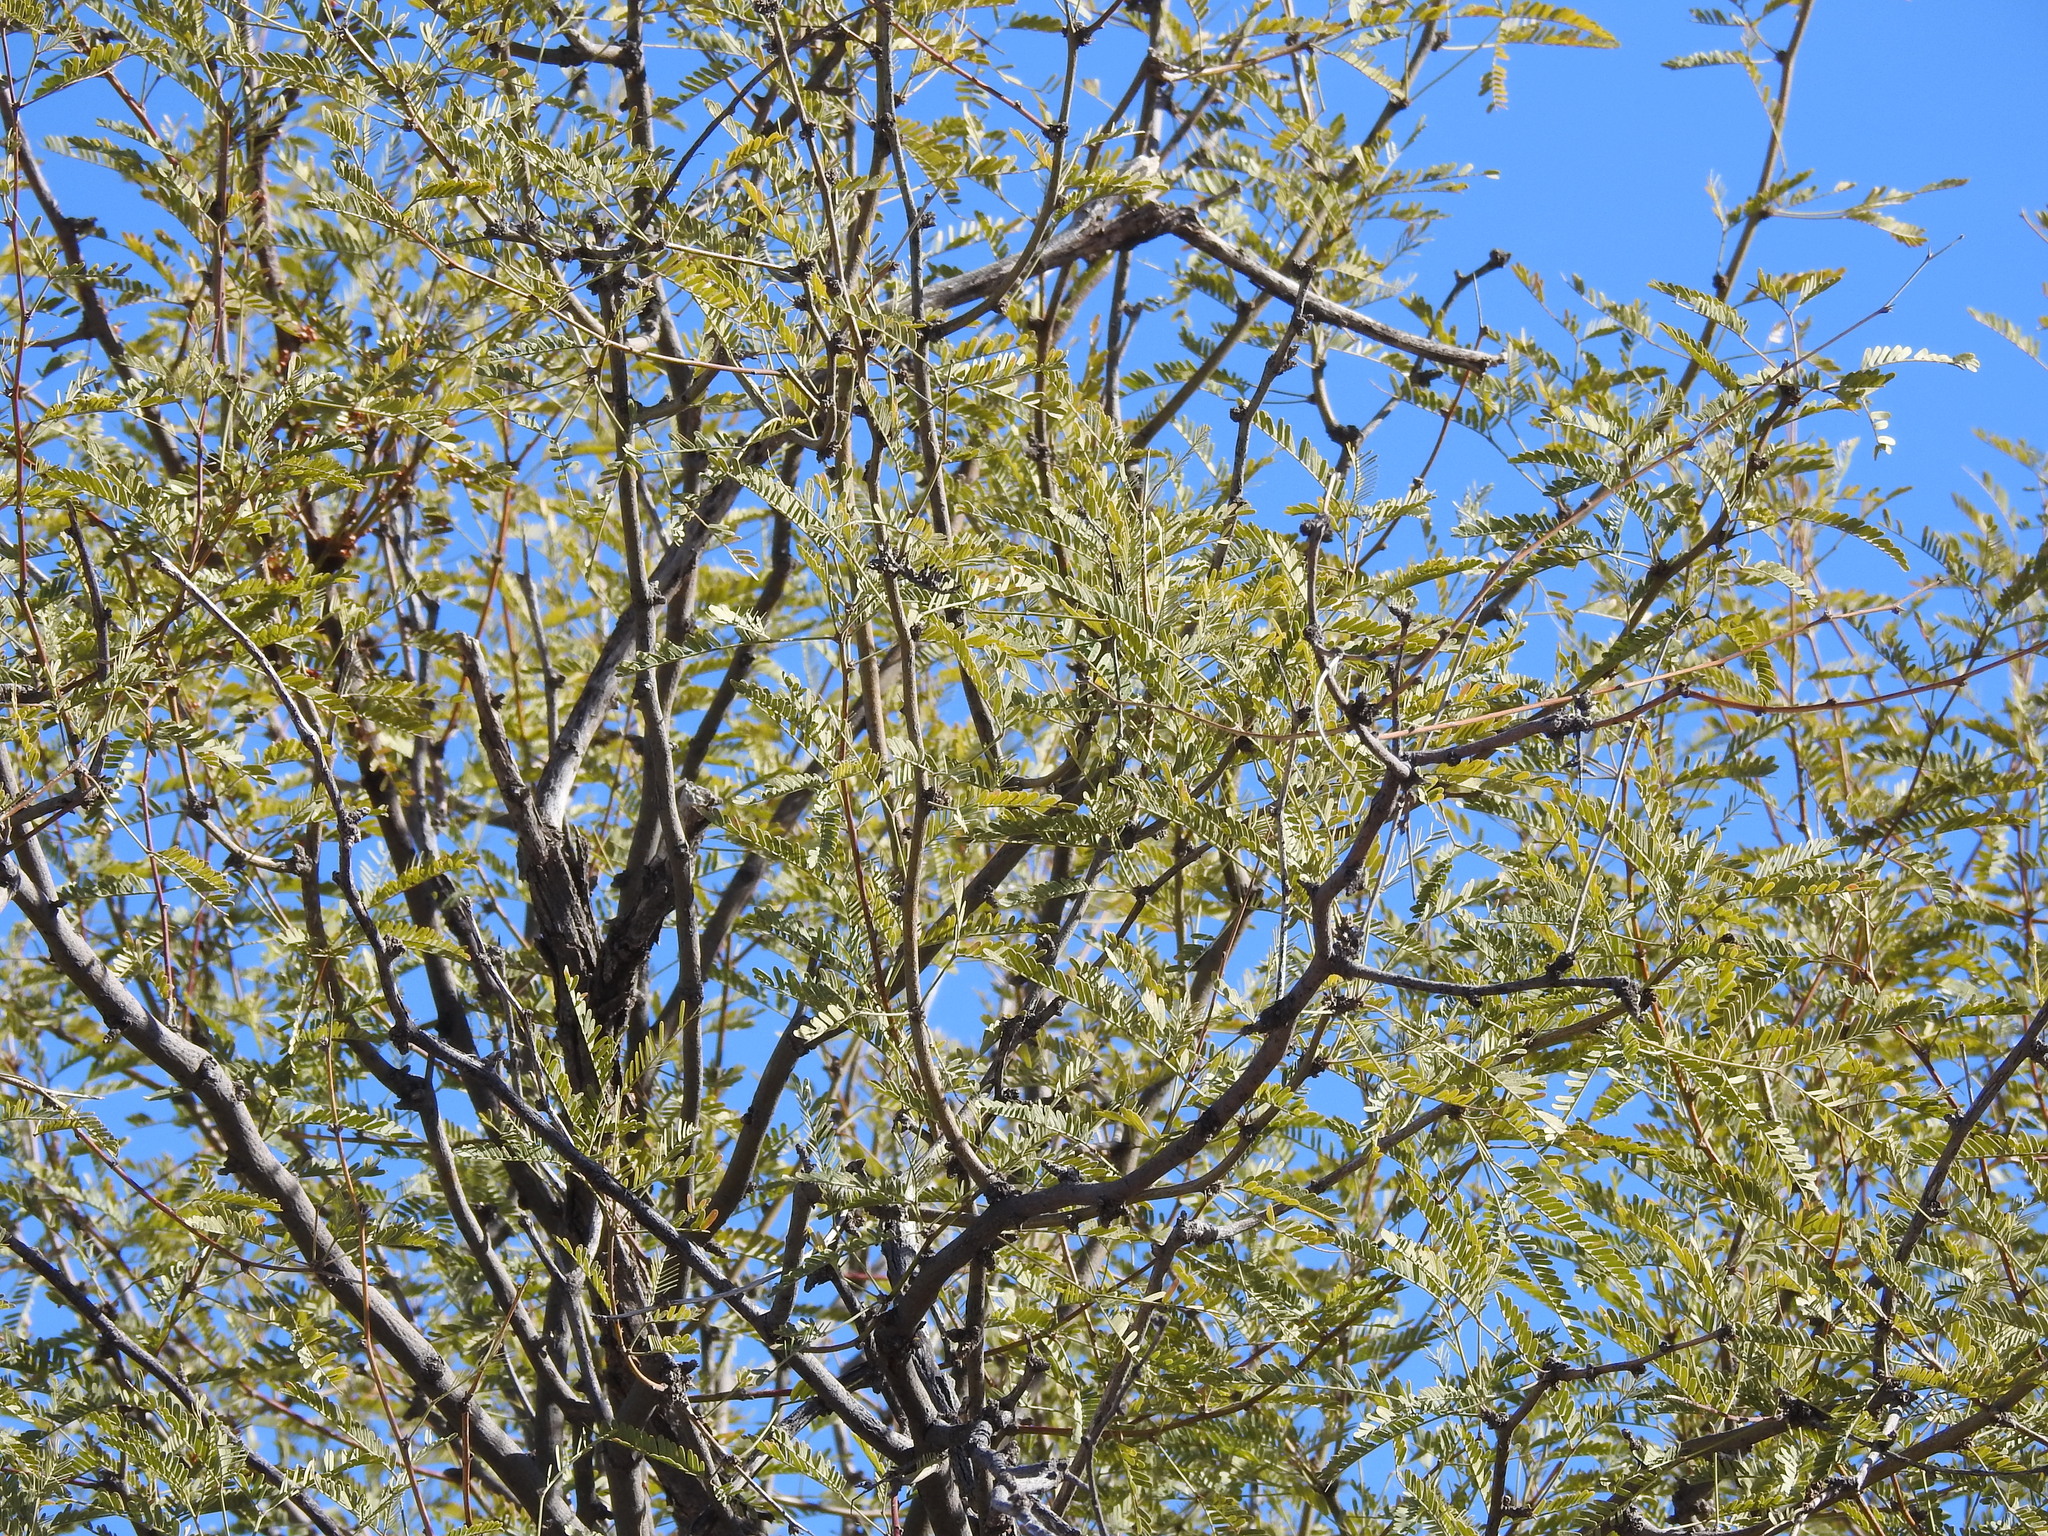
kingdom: Plantae
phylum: Tracheophyta
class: Magnoliopsida
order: Fabales
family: Fabaceae
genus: Prosopis
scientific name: Prosopis velutina
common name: Velvet mesquite
